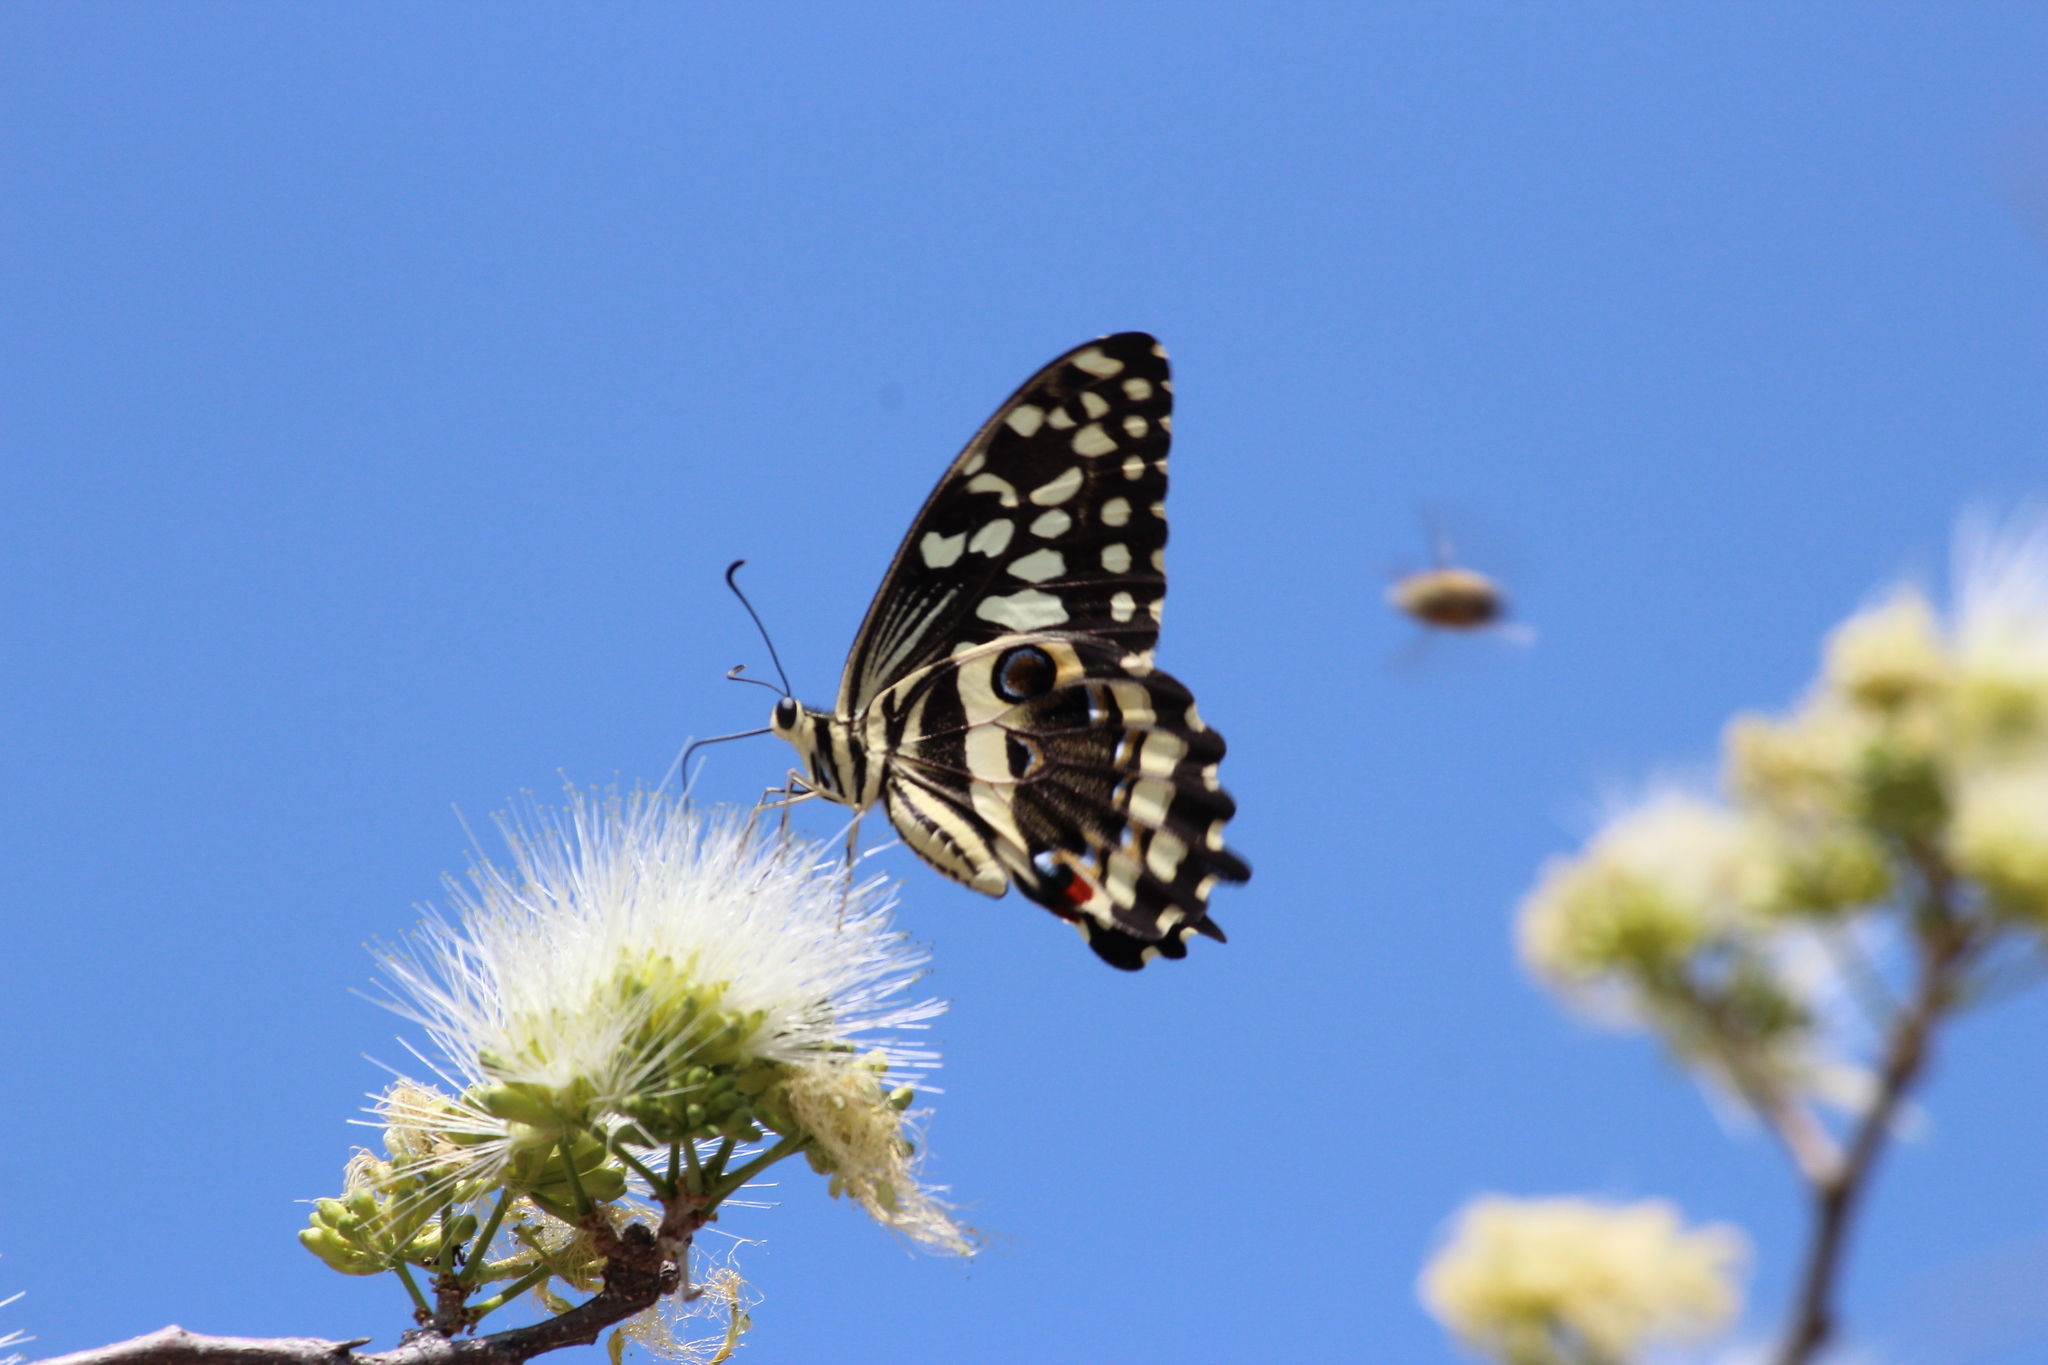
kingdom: Animalia
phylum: Arthropoda
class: Insecta
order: Lepidoptera
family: Papilionidae
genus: Papilio
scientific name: Papilio demodocus
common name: Christmas butterfly
